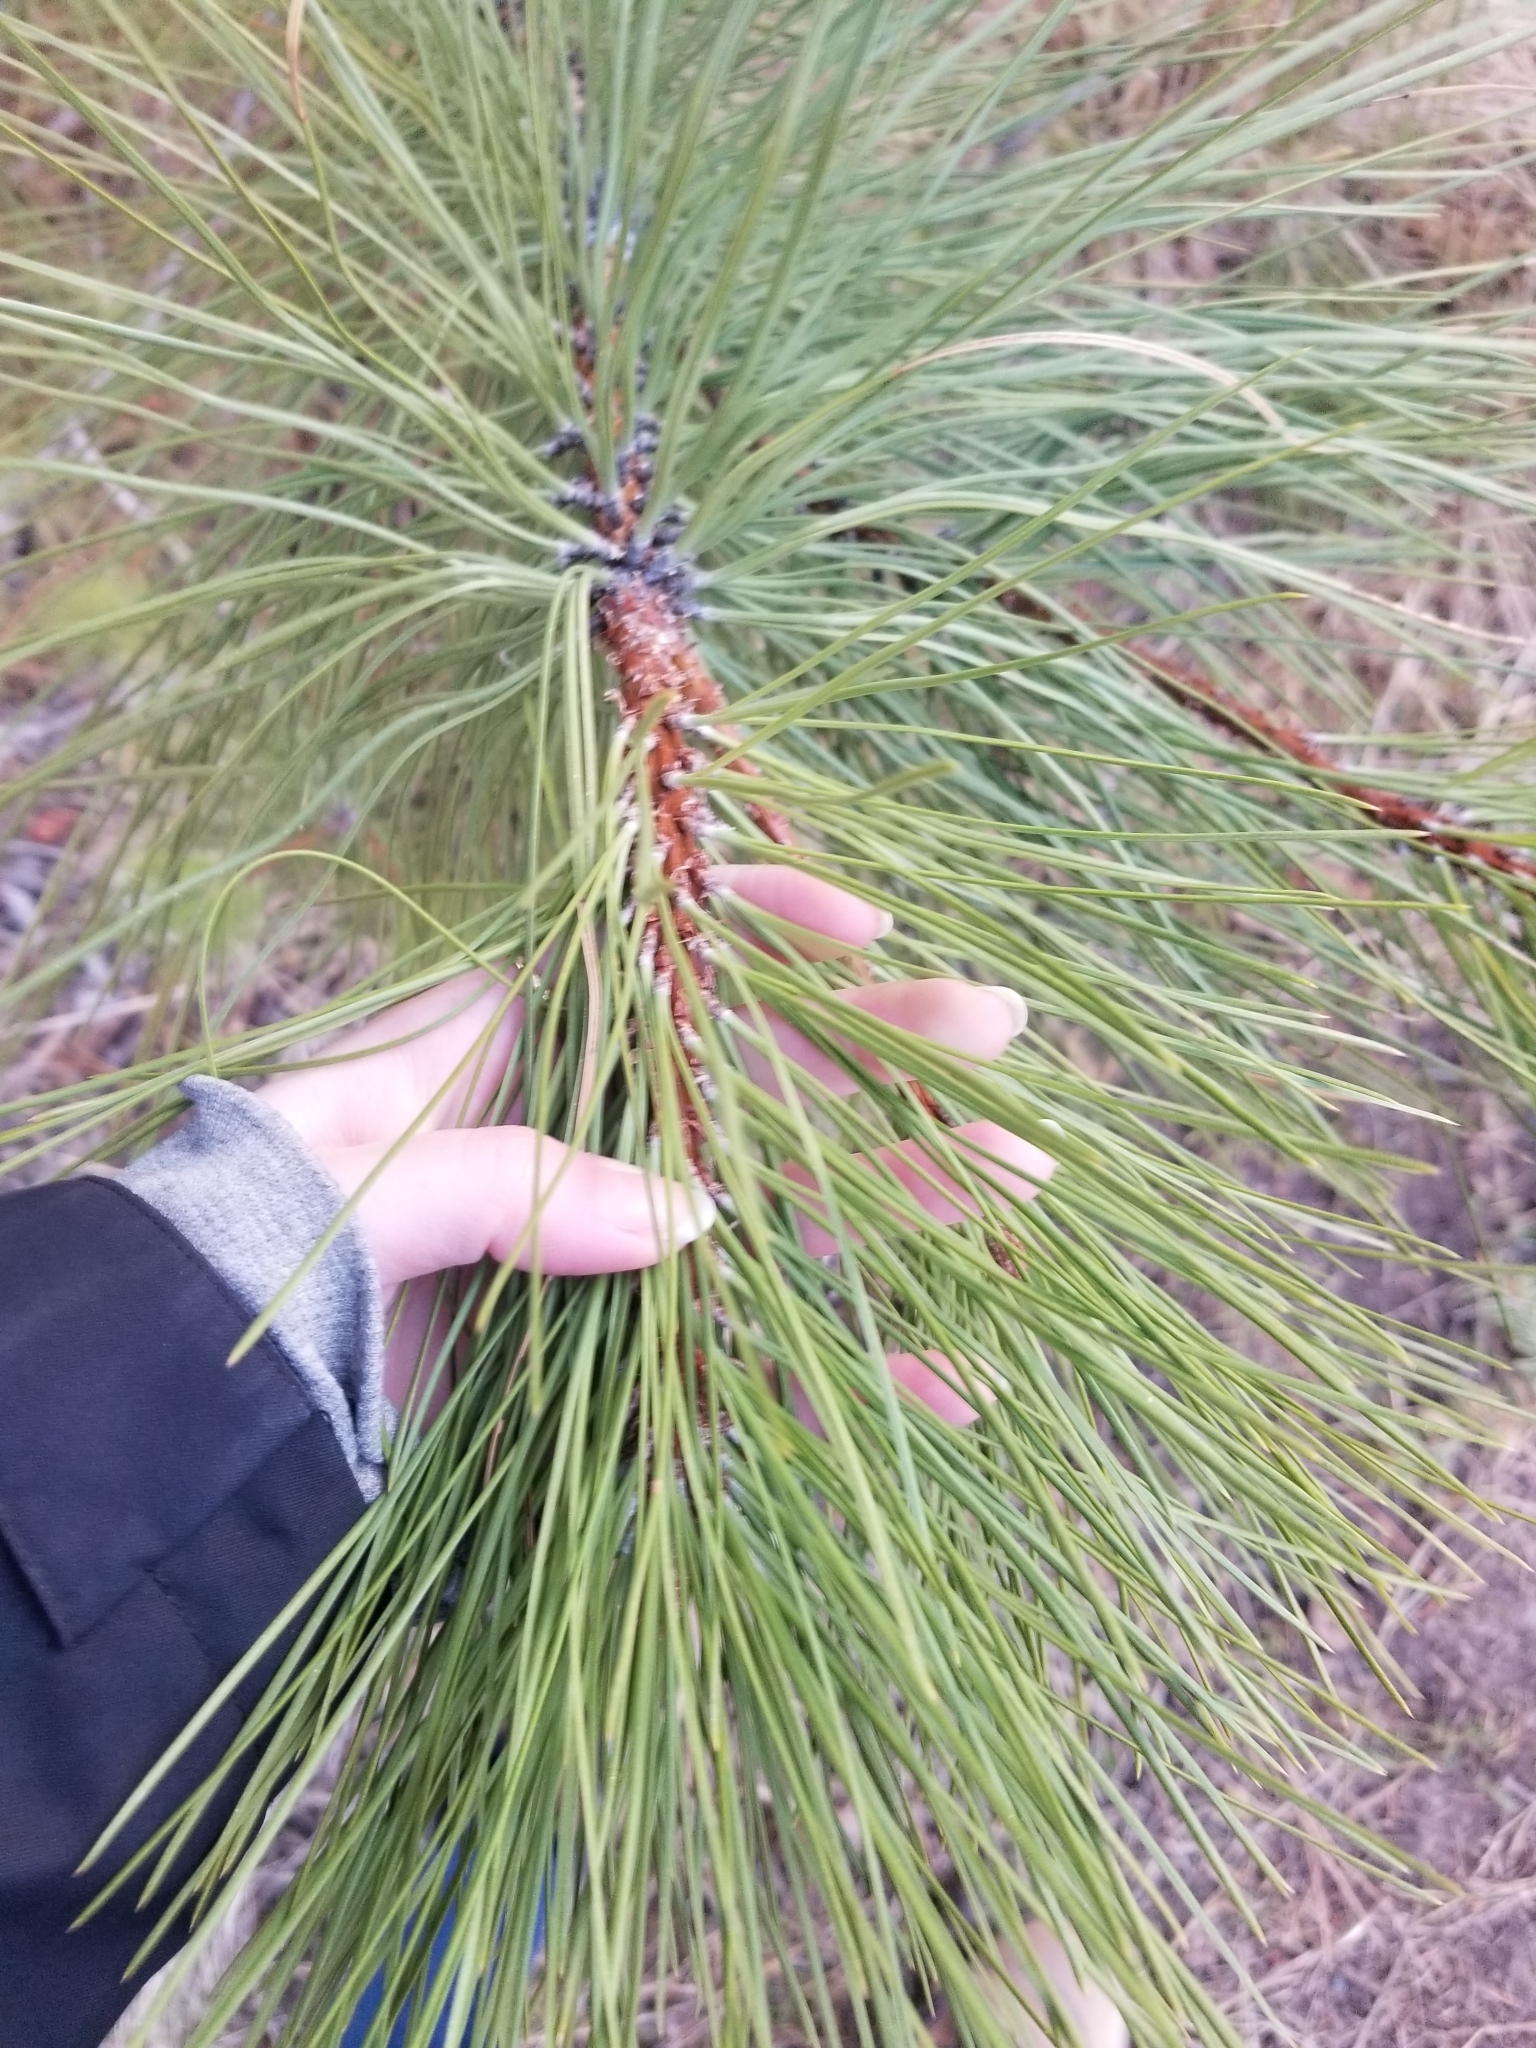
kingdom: Plantae
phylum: Tracheophyta
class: Pinopsida
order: Pinales
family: Pinaceae
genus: Pinus
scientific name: Pinus ponderosa
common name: Western yellow-pine
